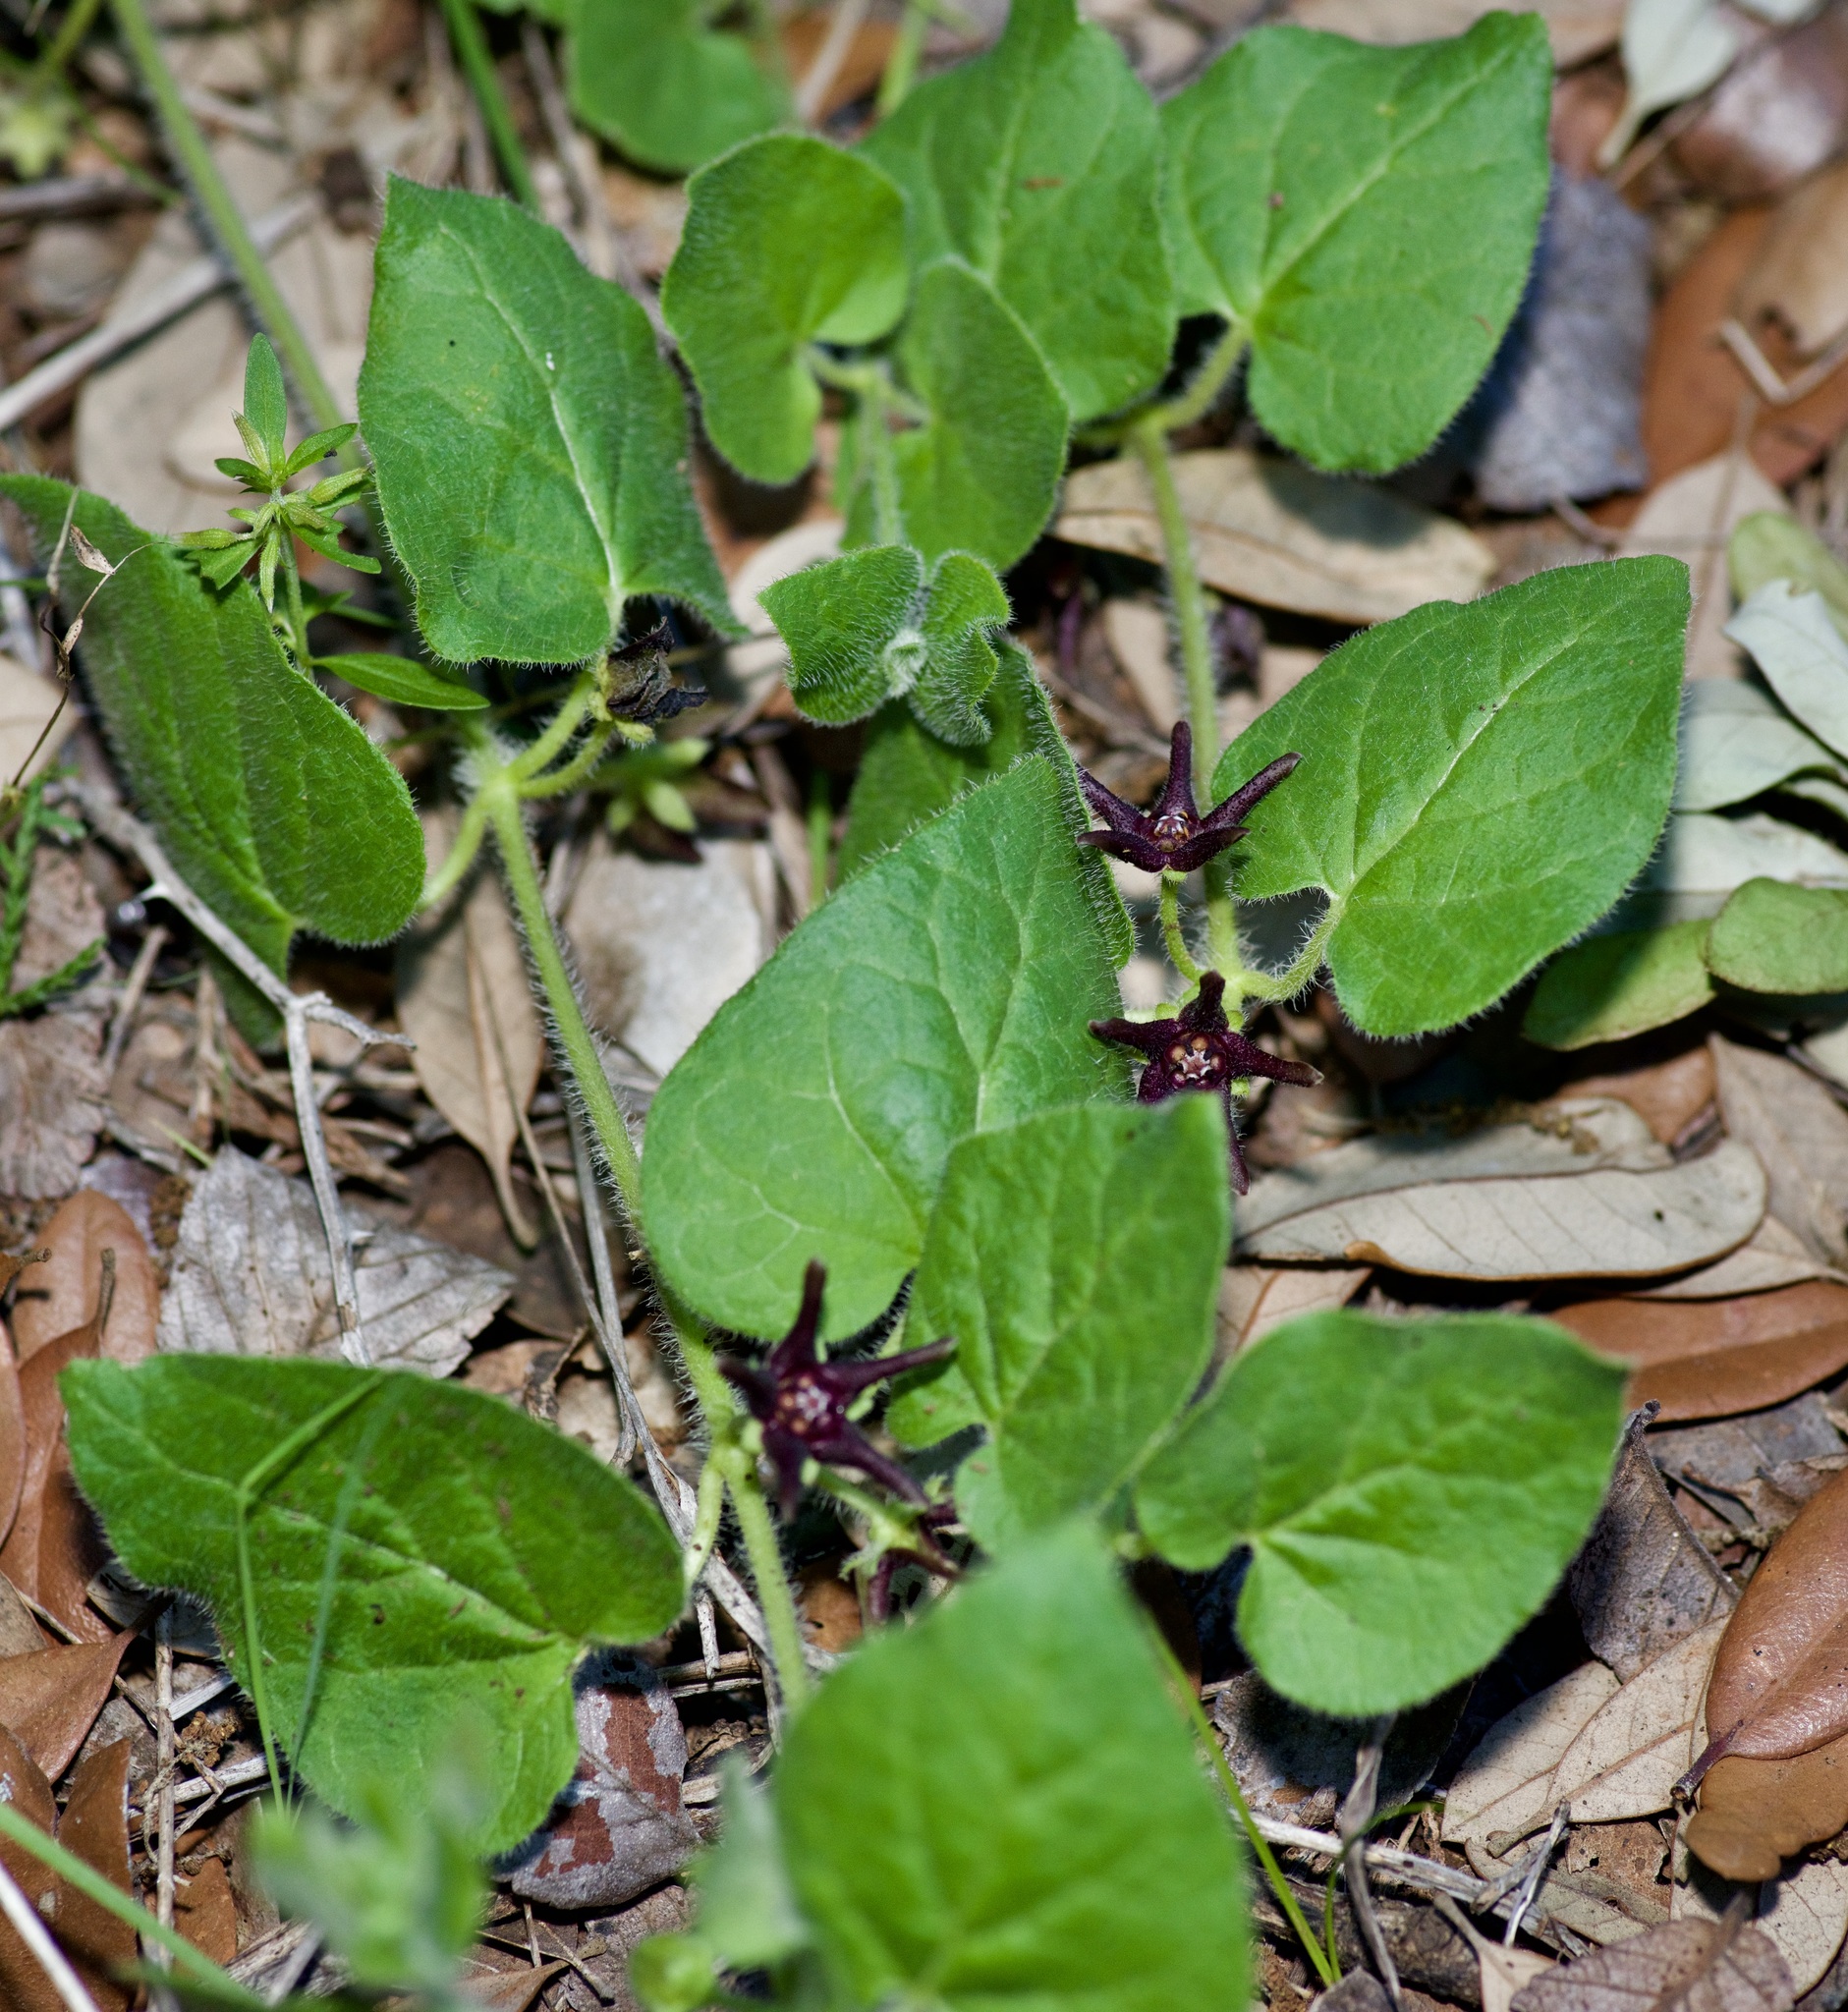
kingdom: Plantae
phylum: Tracheophyta
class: Magnoliopsida
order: Gentianales
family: Apocynaceae
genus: Chthamalia
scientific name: Chthamalia biflora
